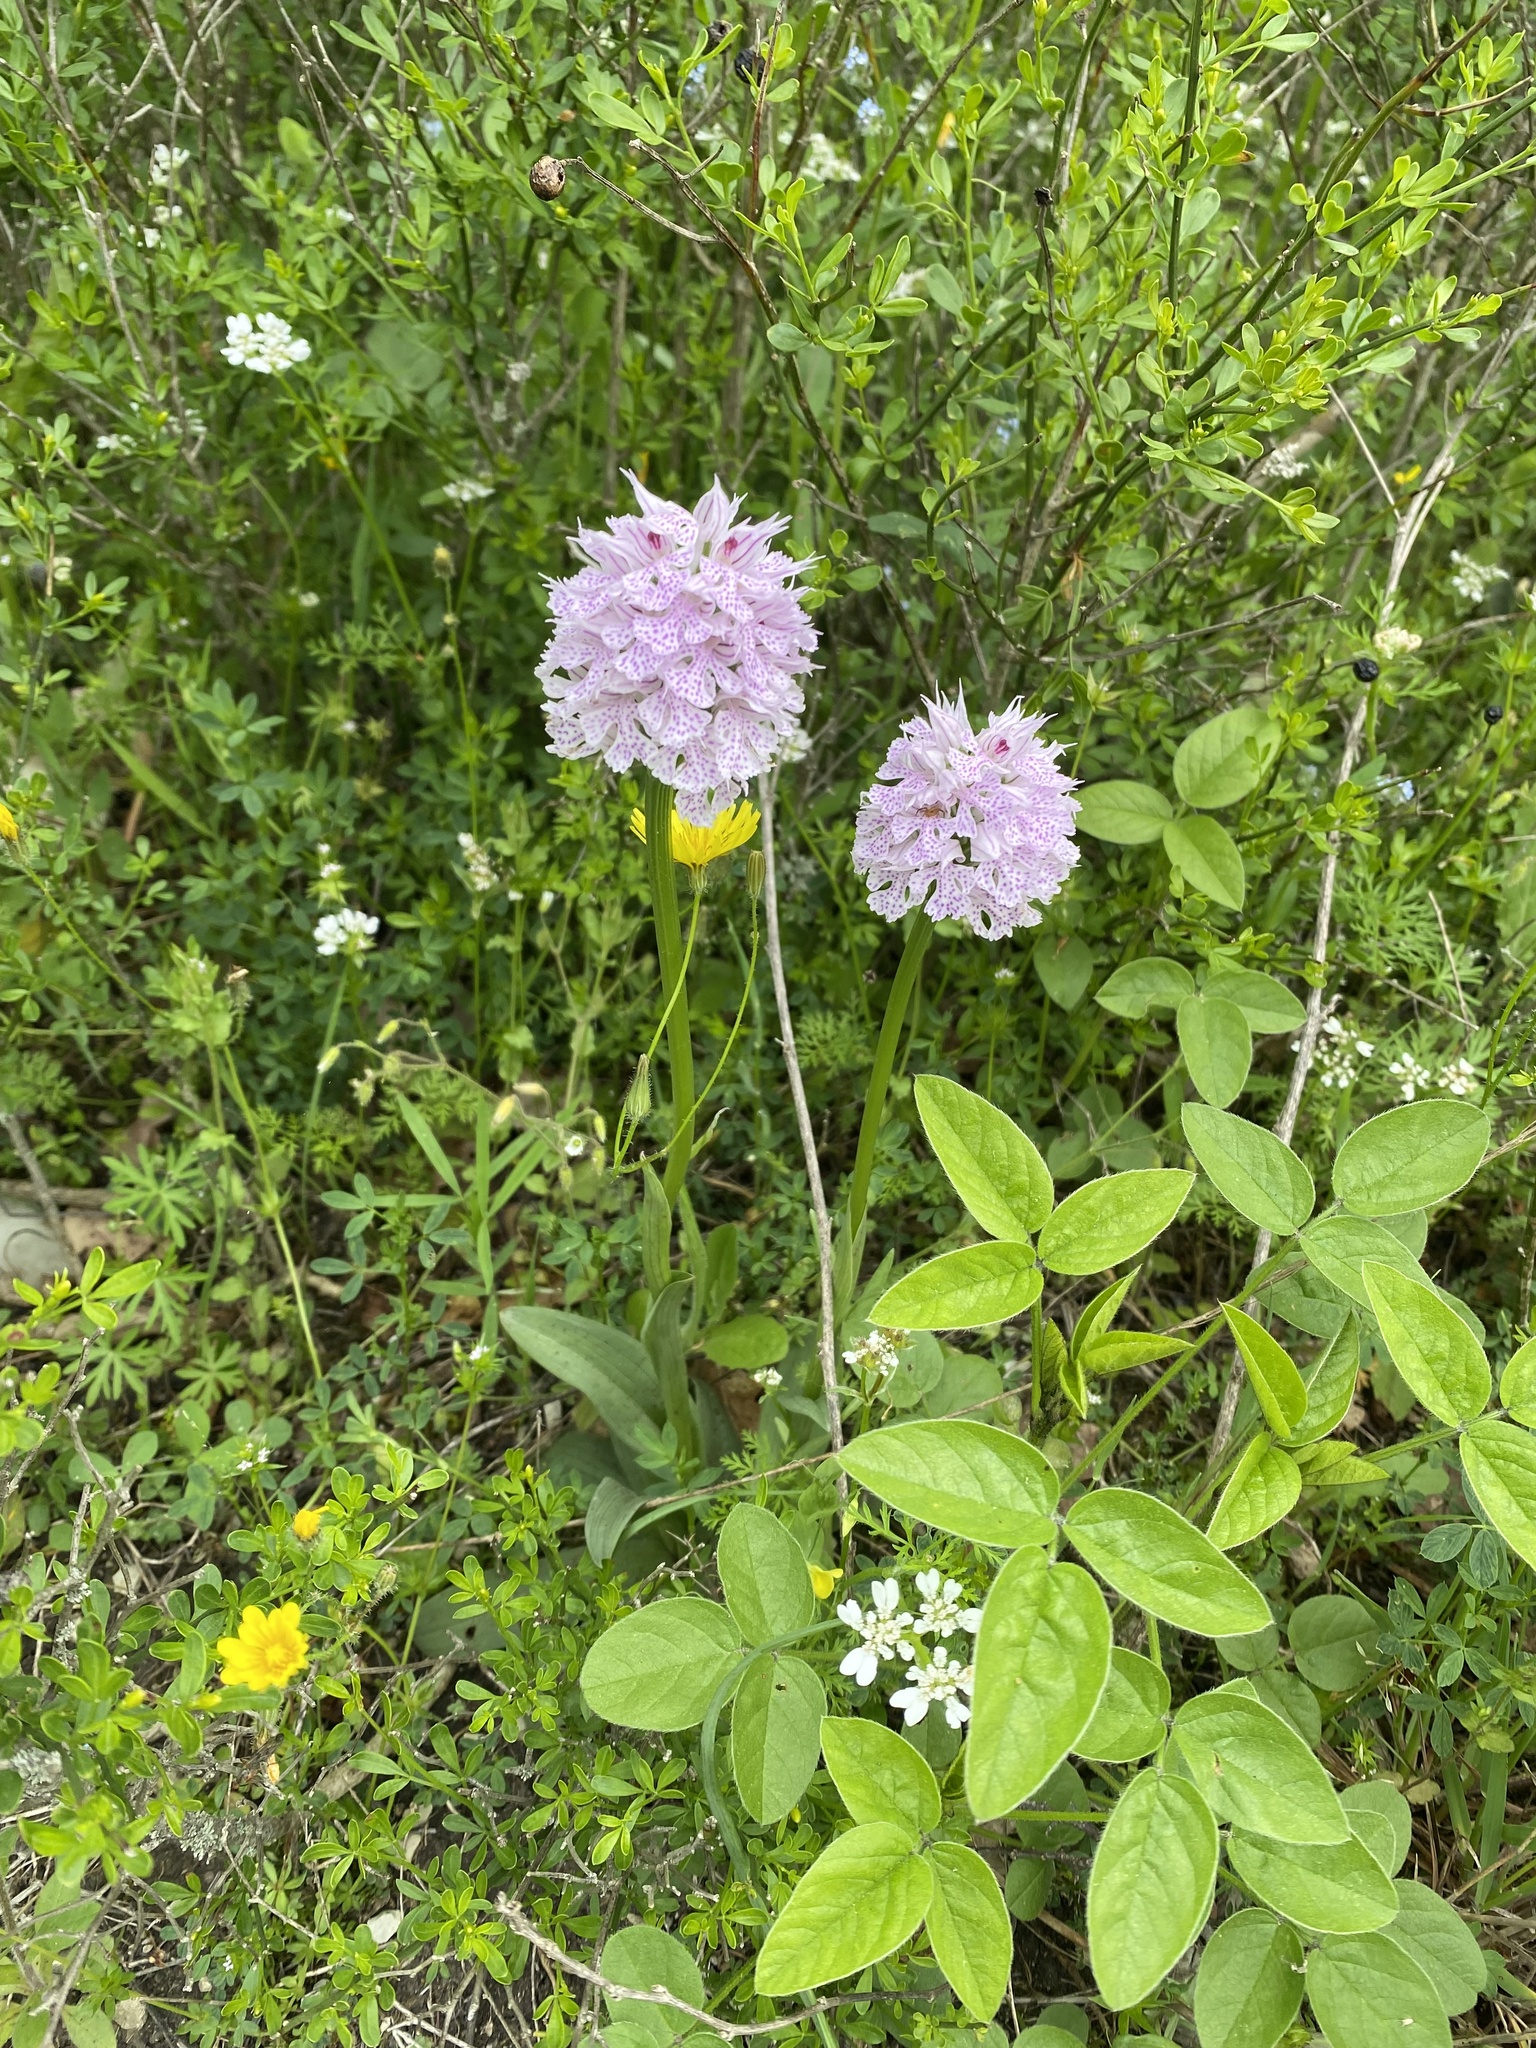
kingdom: Plantae
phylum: Tracheophyta
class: Liliopsida
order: Asparagales
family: Orchidaceae
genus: Neotinea
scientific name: Neotinea tridentata
